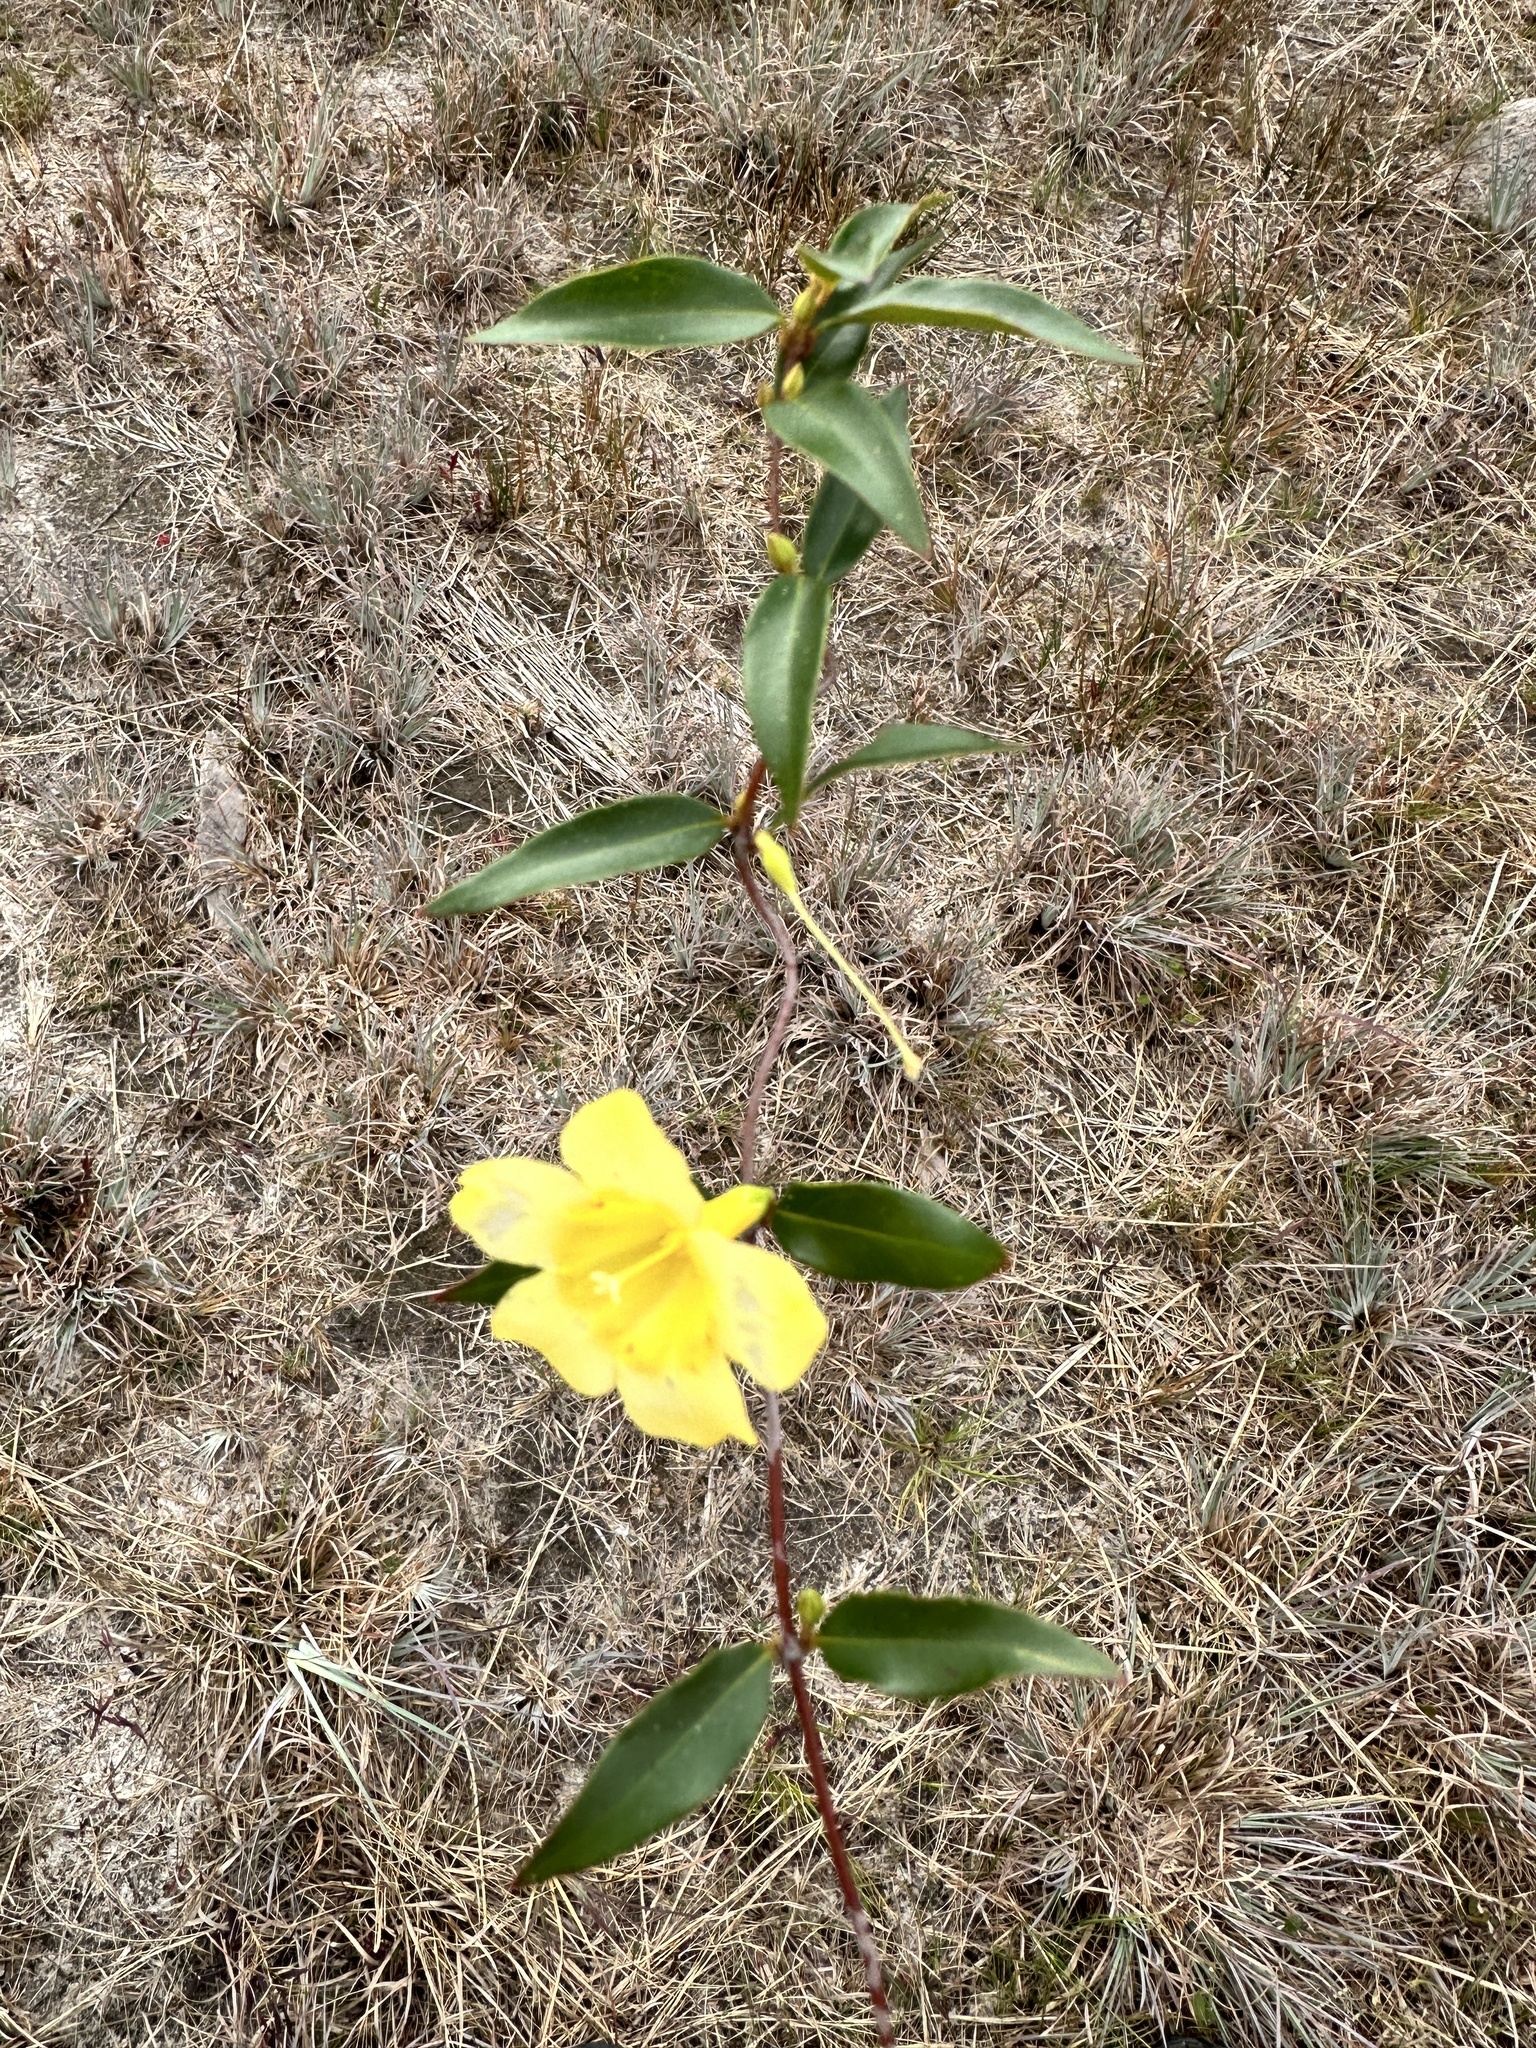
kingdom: Plantae
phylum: Tracheophyta
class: Magnoliopsida
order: Gentianales
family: Gelsemiaceae
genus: Gelsemium
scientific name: Gelsemium sempervirens
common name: Carolina-jasmine
